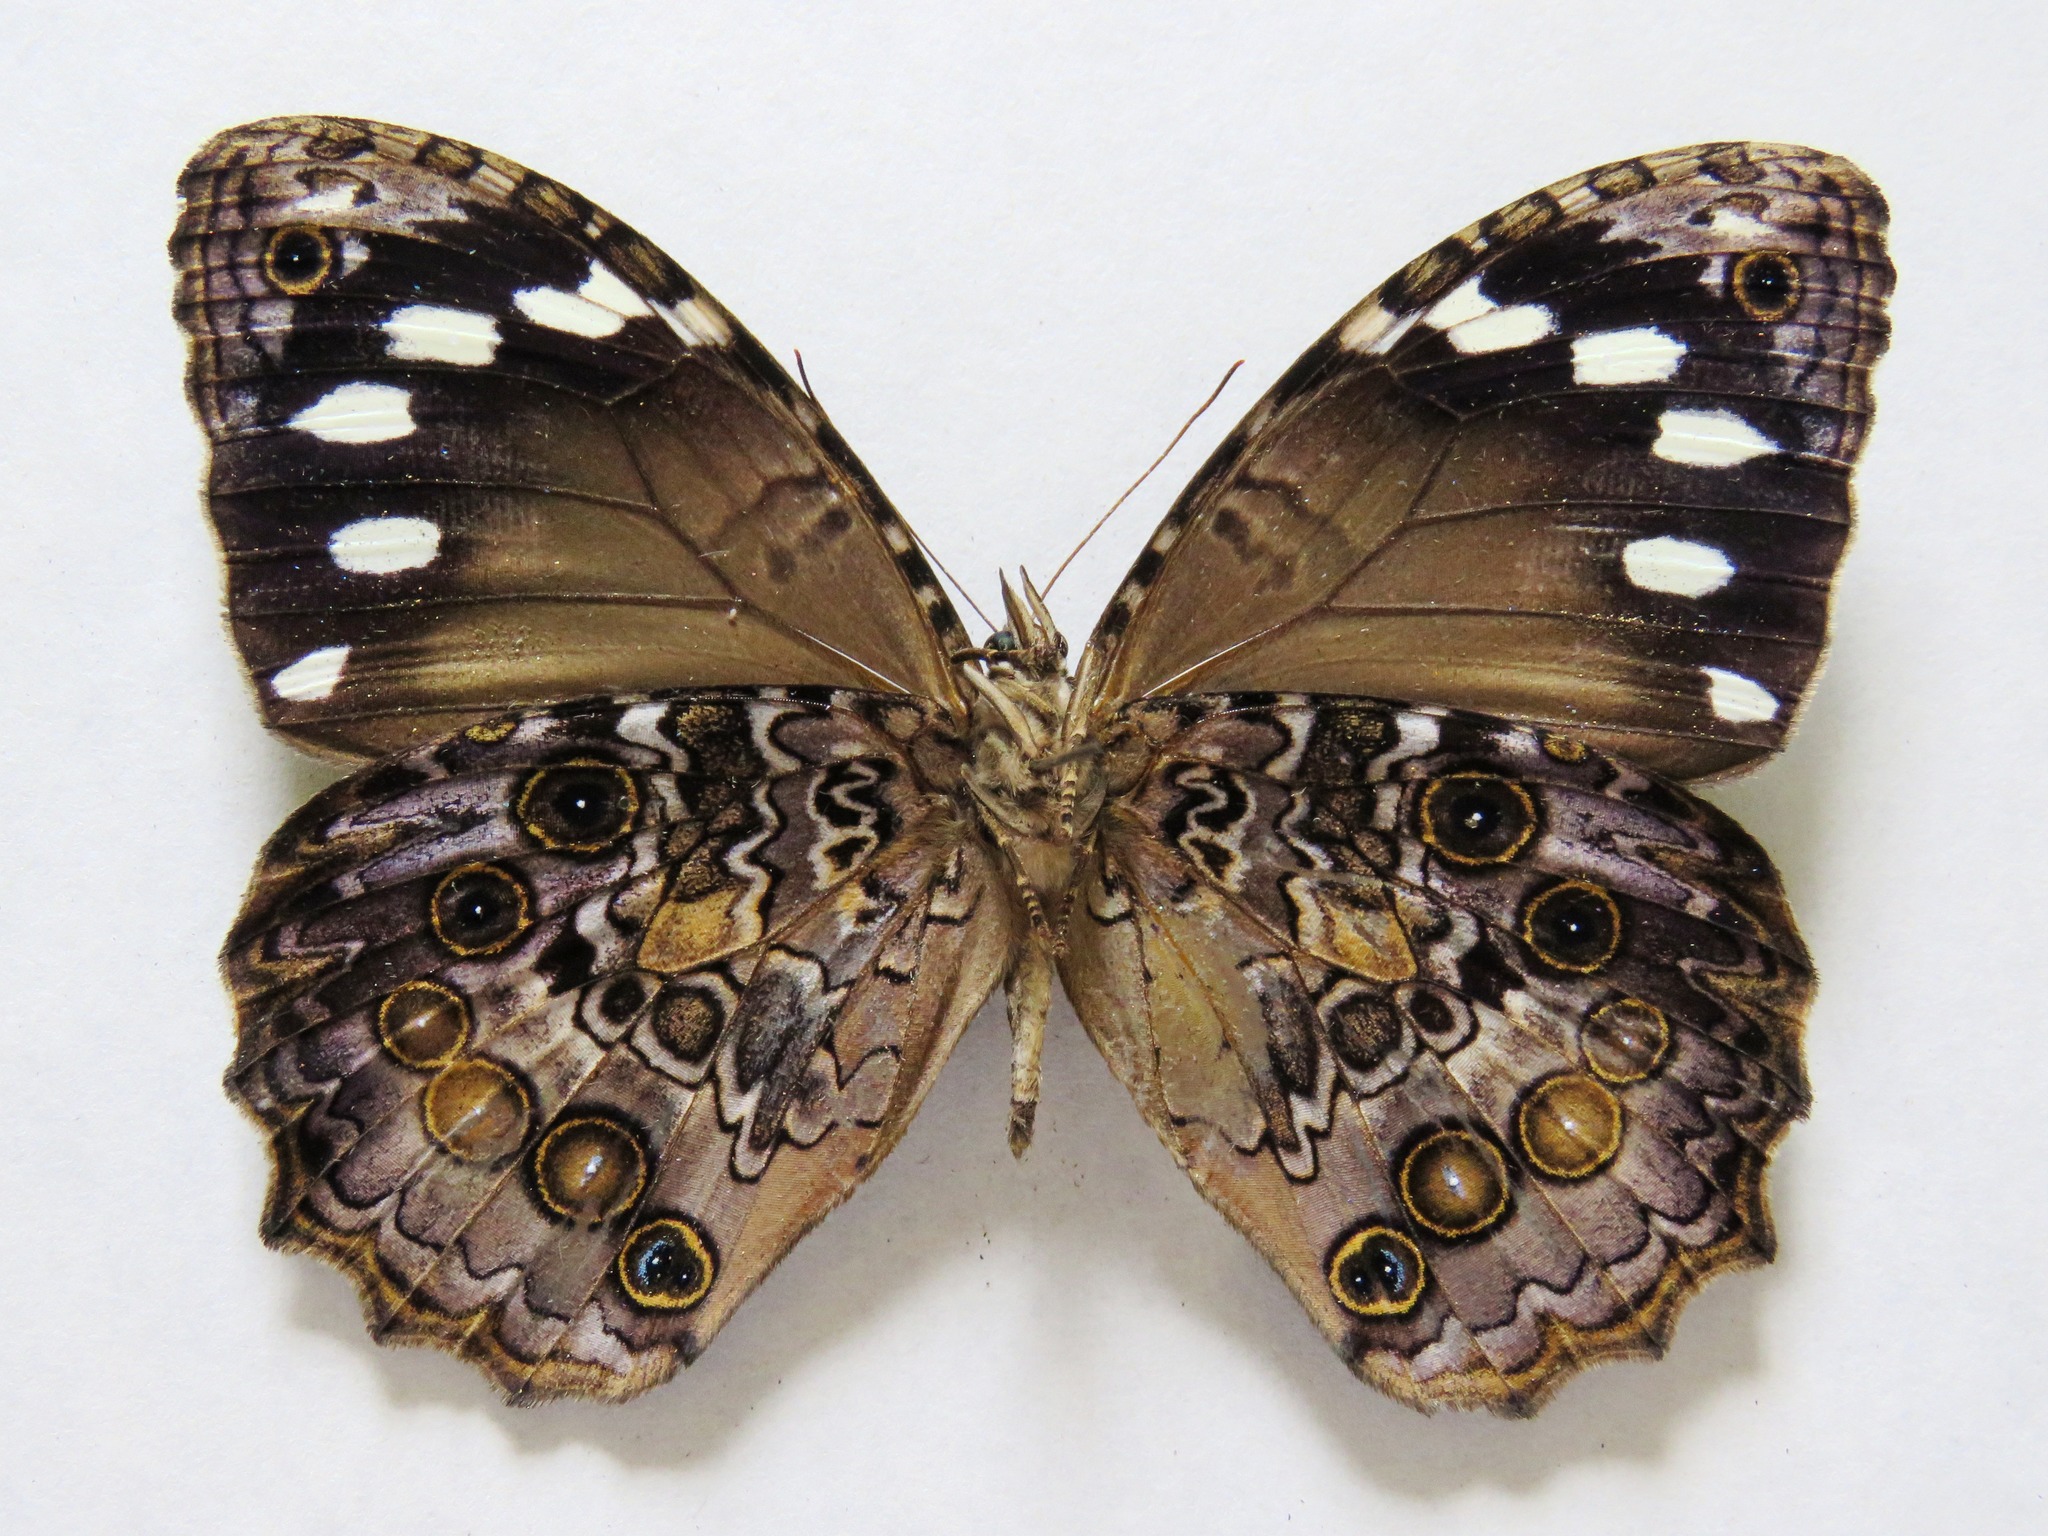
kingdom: Animalia
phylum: Arthropoda
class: Insecta
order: Lepidoptera
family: Nymphalidae
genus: Manataria
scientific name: Manataria maculata
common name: White-spotted satyr
